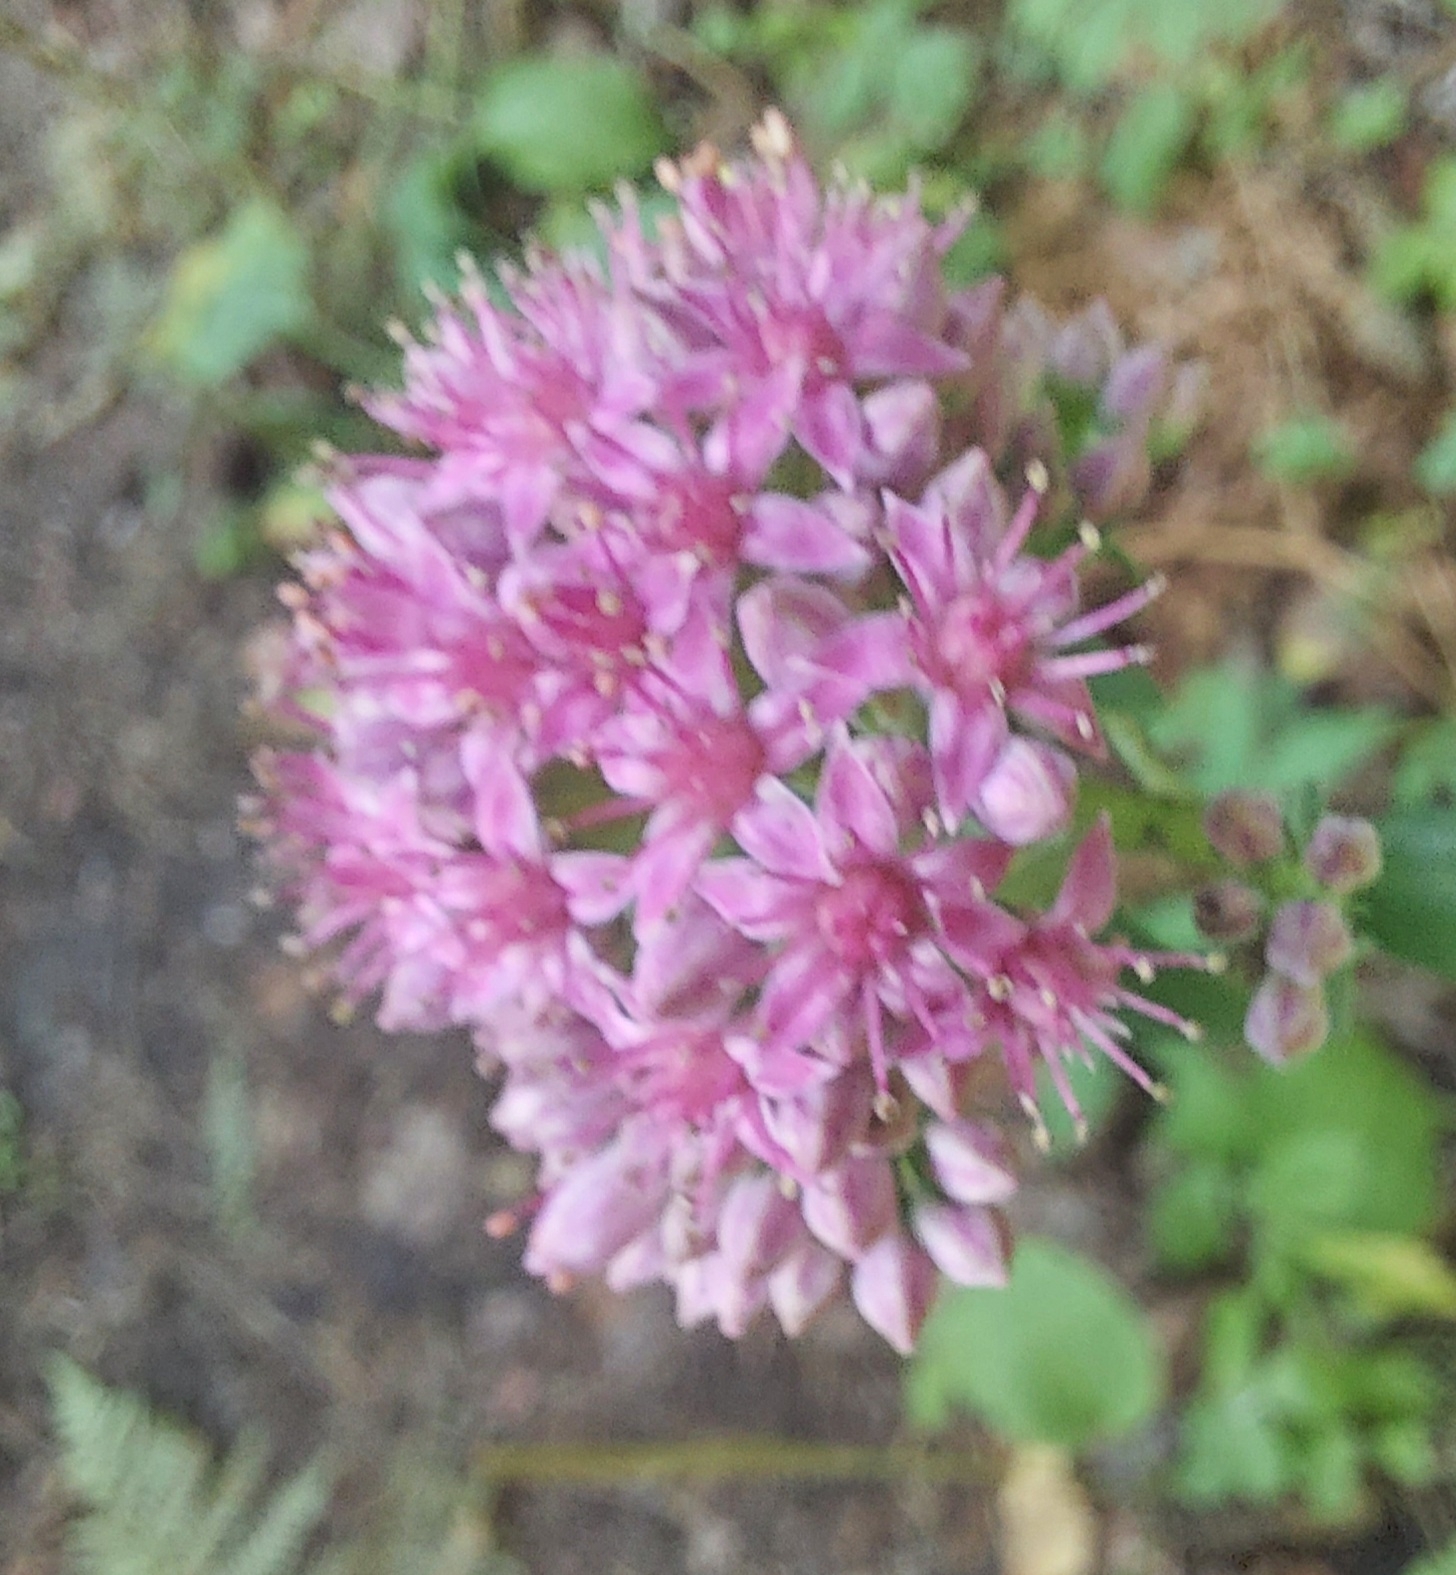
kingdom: Plantae
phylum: Tracheophyta
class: Magnoliopsida
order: Saxifragales
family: Crassulaceae
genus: Hylotelephium
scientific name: Hylotelephium telephium
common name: Live-forever
